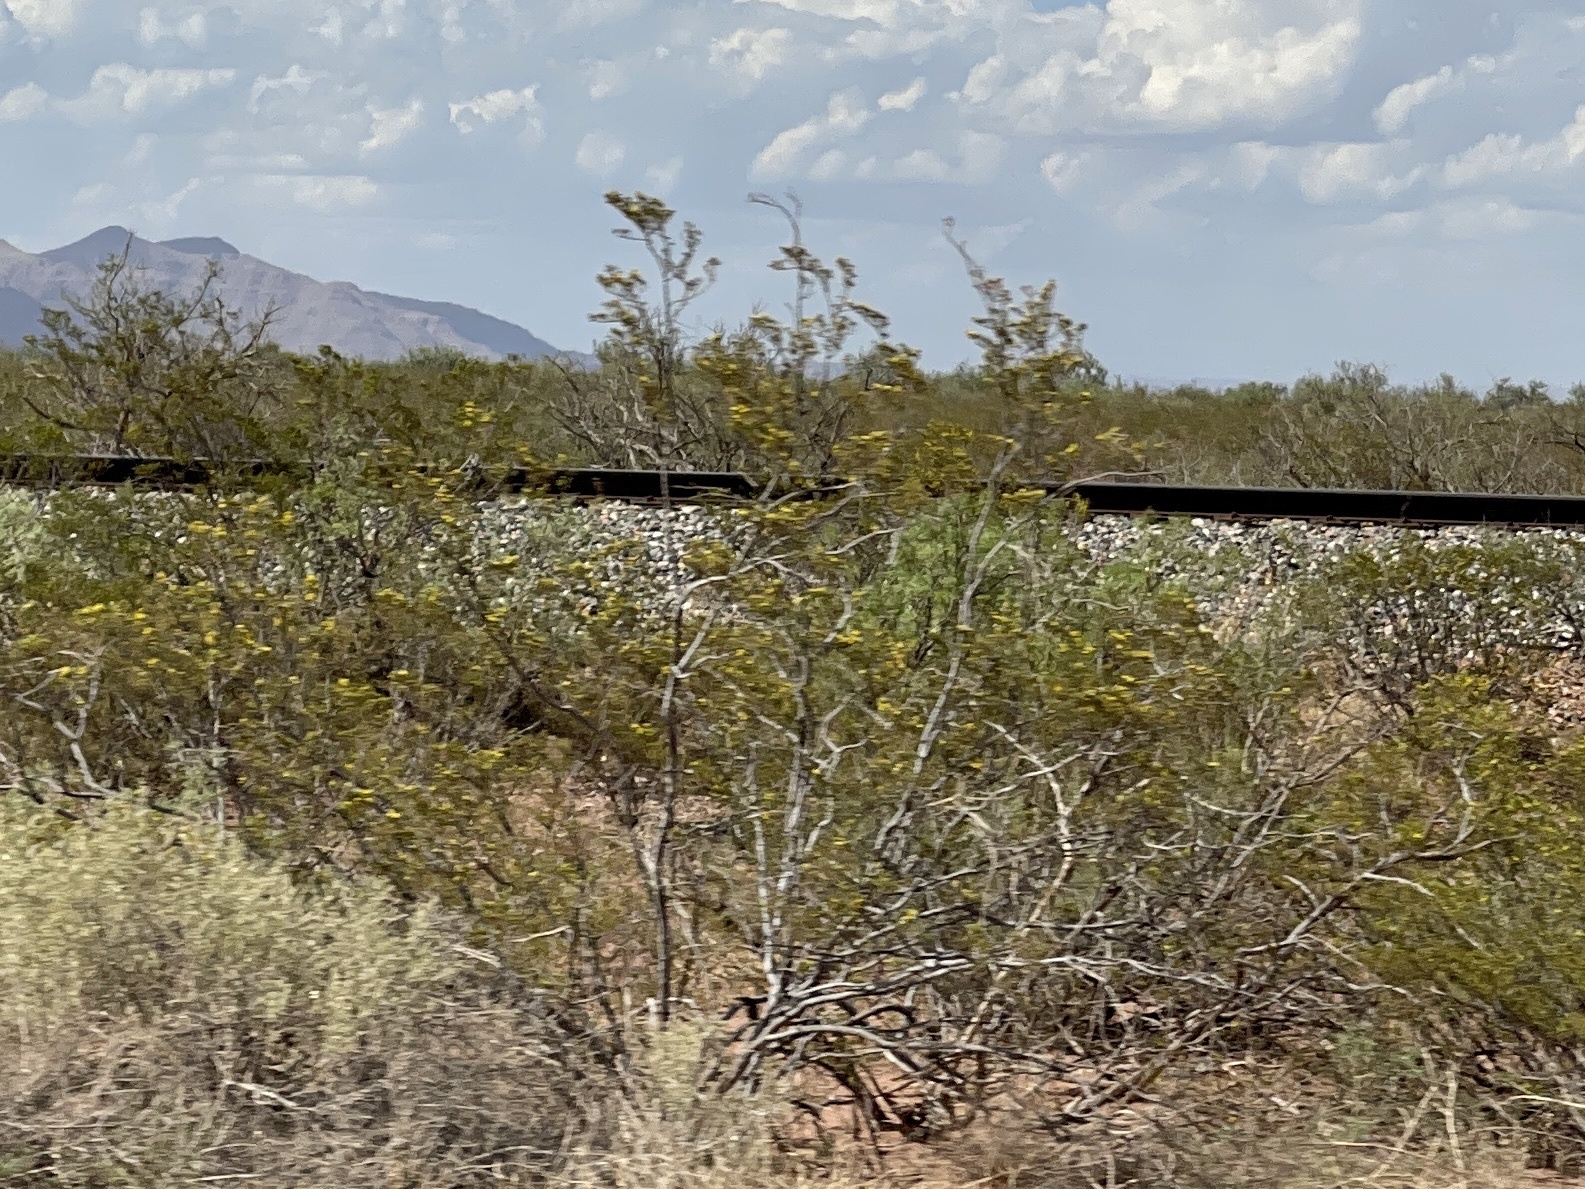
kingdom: Plantae
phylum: Tracheophyta
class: Magnoliopsida
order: Zygophyllales
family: Zygophyllaceae
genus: Larrea
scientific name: Larrea tridentata
